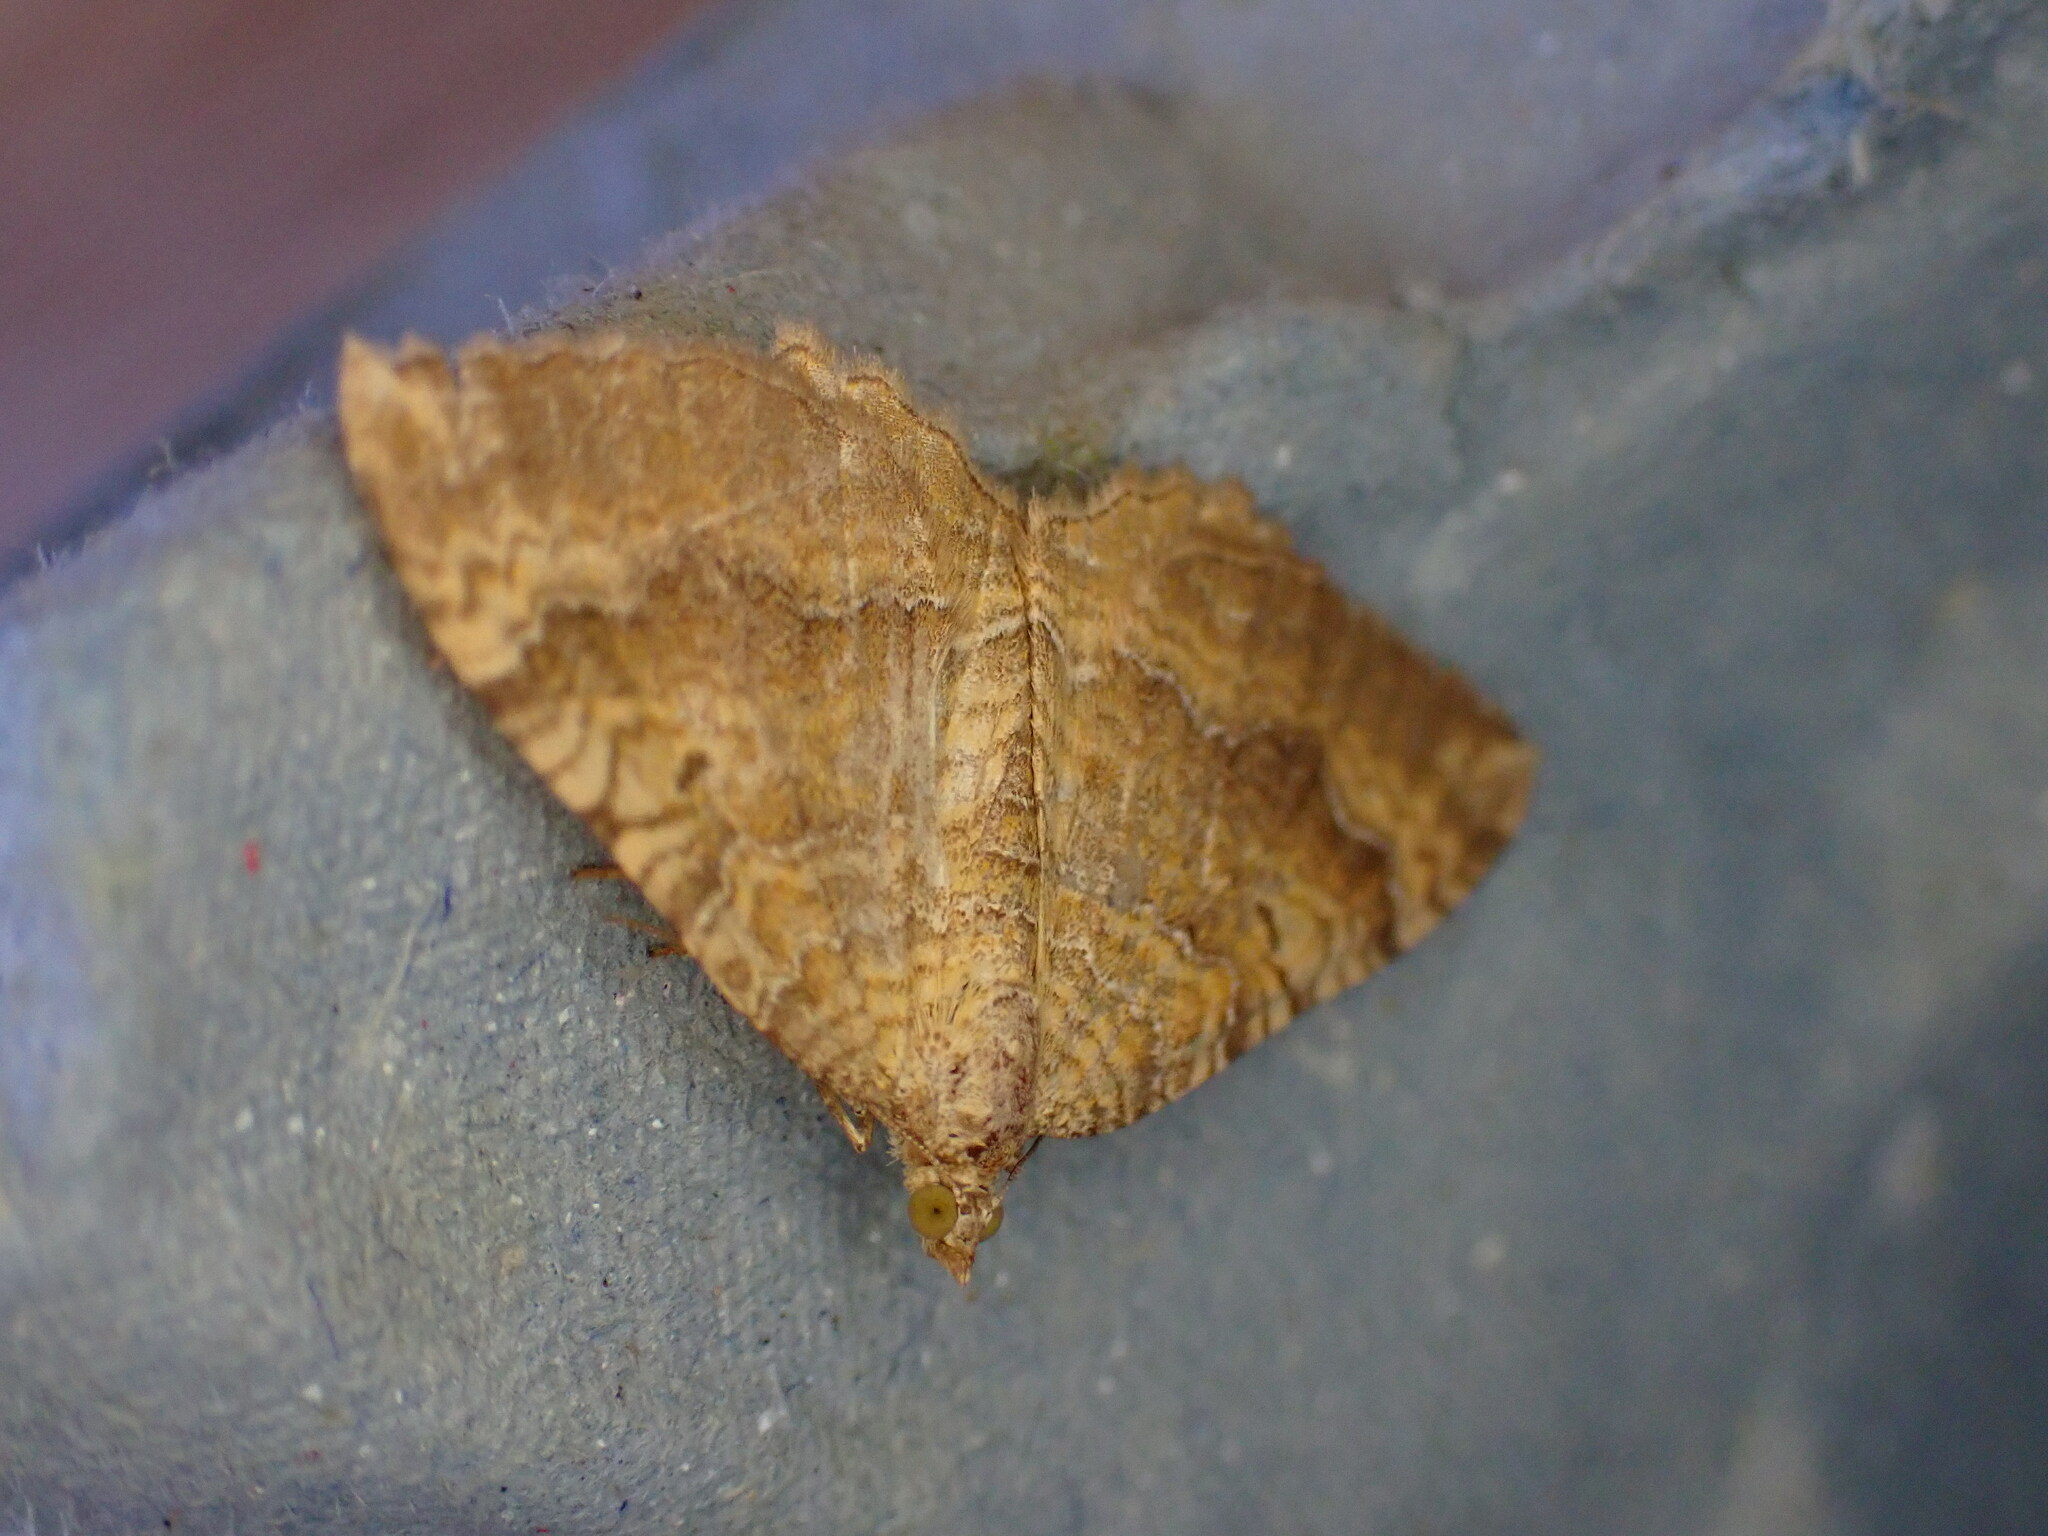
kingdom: Animalia
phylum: Arthropoda
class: Insecta
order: Lepidoptera
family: Geometridae
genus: Camptogramma
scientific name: Camptogramma bilineata
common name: Yellow shell
